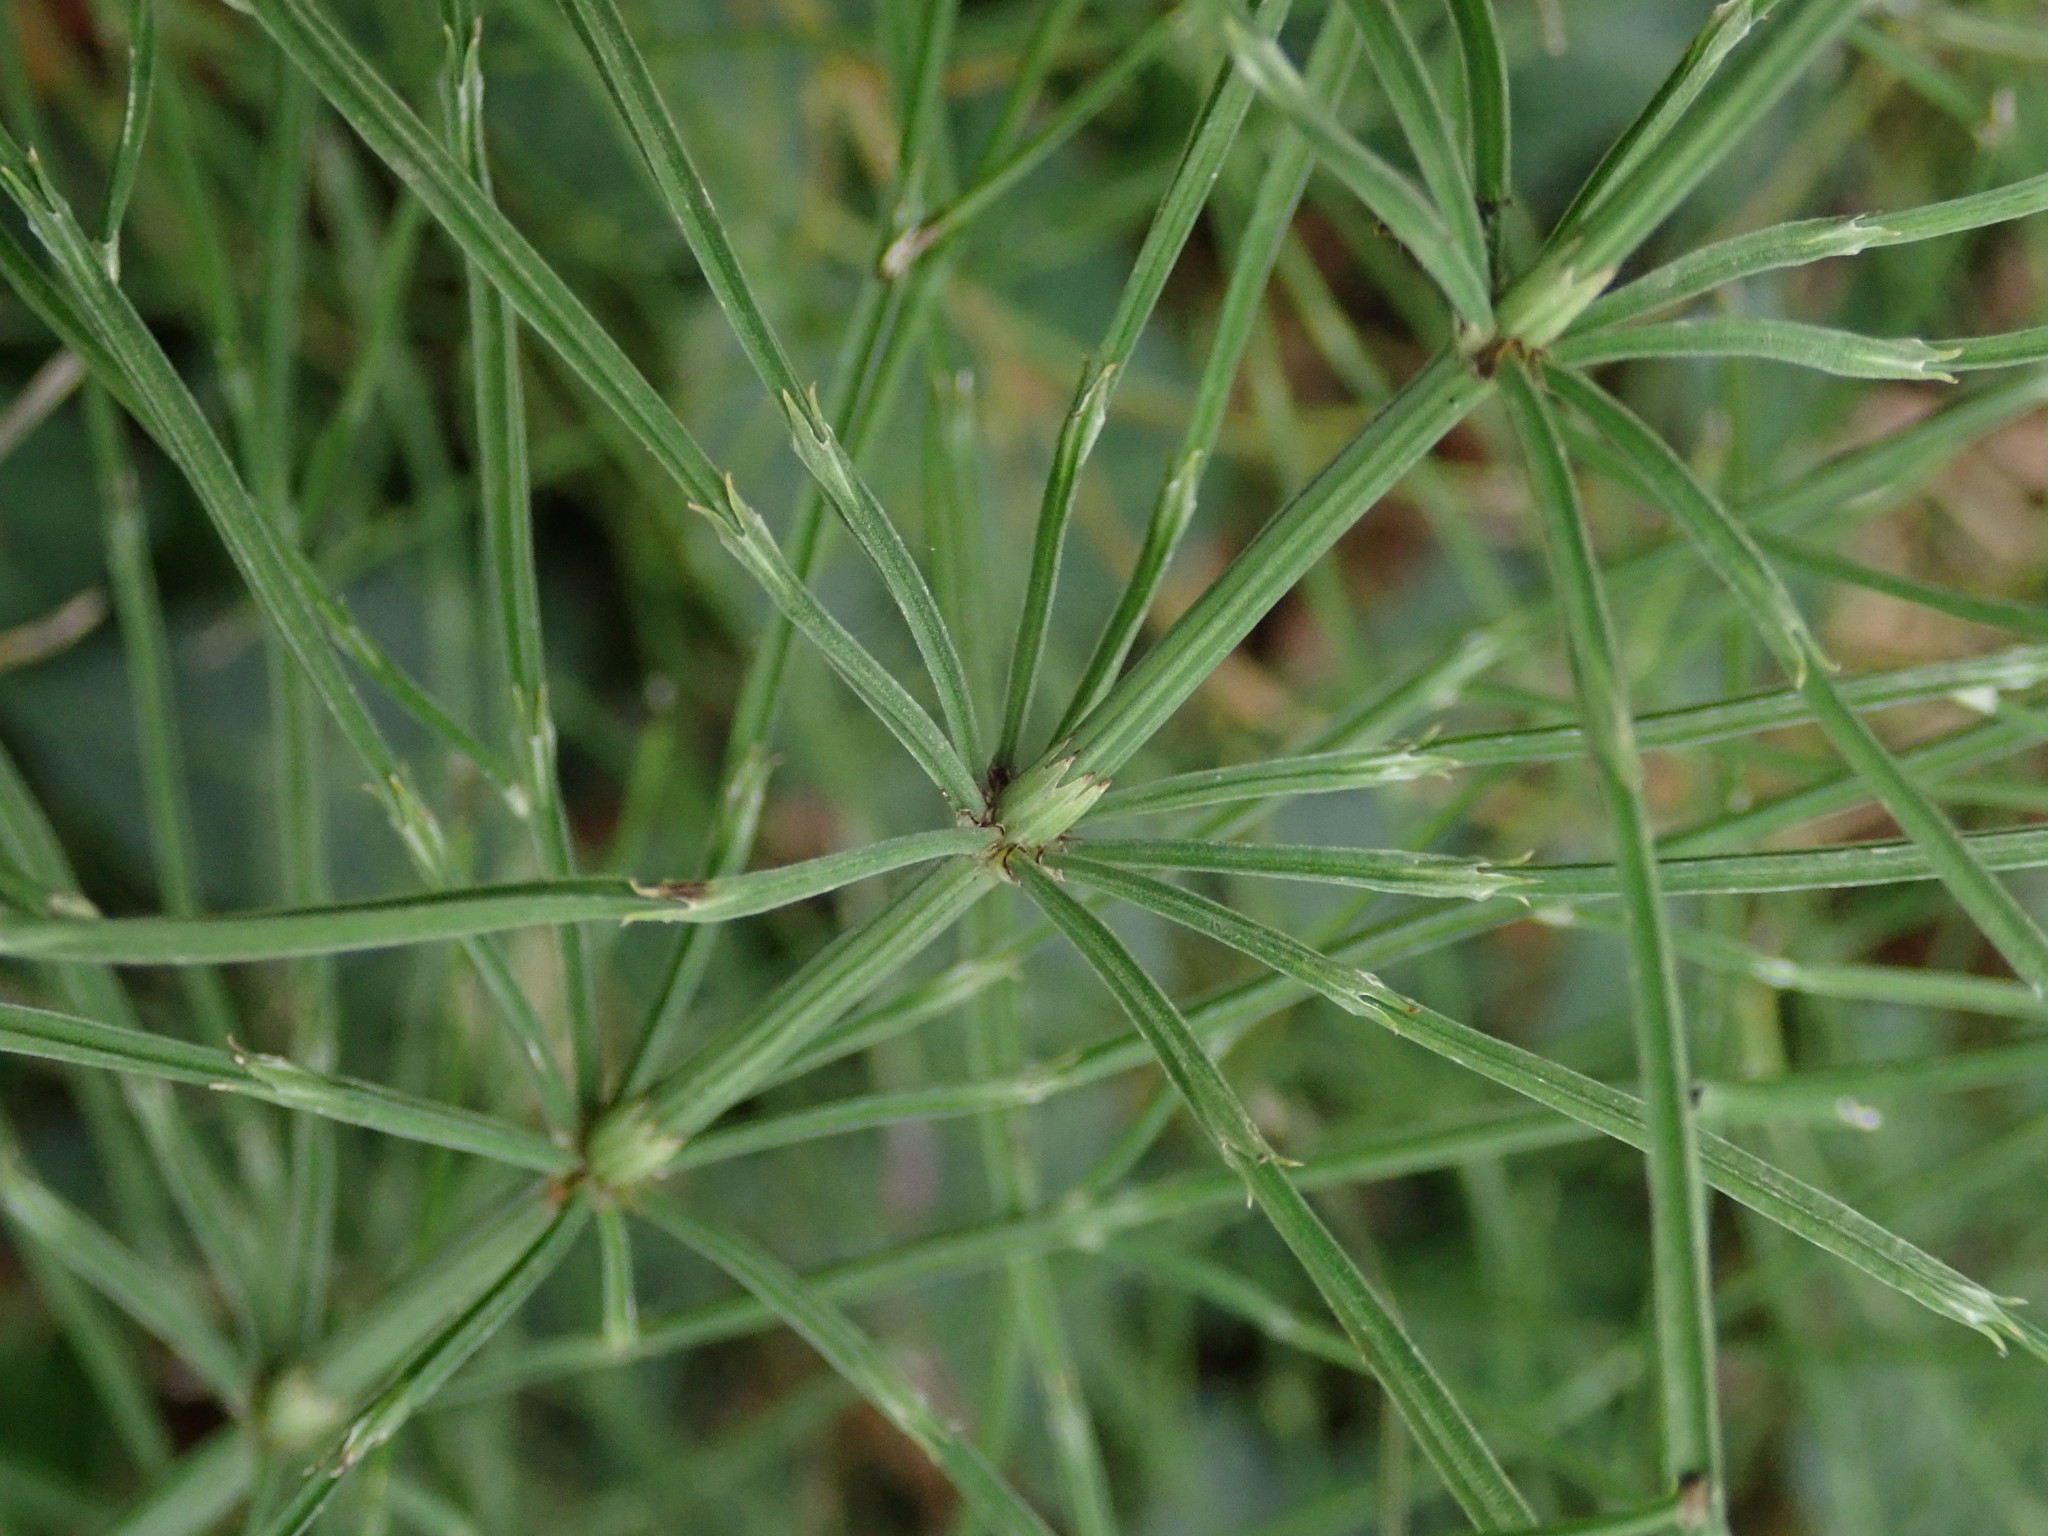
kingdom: Plantae
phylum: Tracheophyta
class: Polypodiopsida
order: Equisetales
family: Equisetaceae
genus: Equisetum
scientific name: Equisetum arvense
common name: Field horsetail
